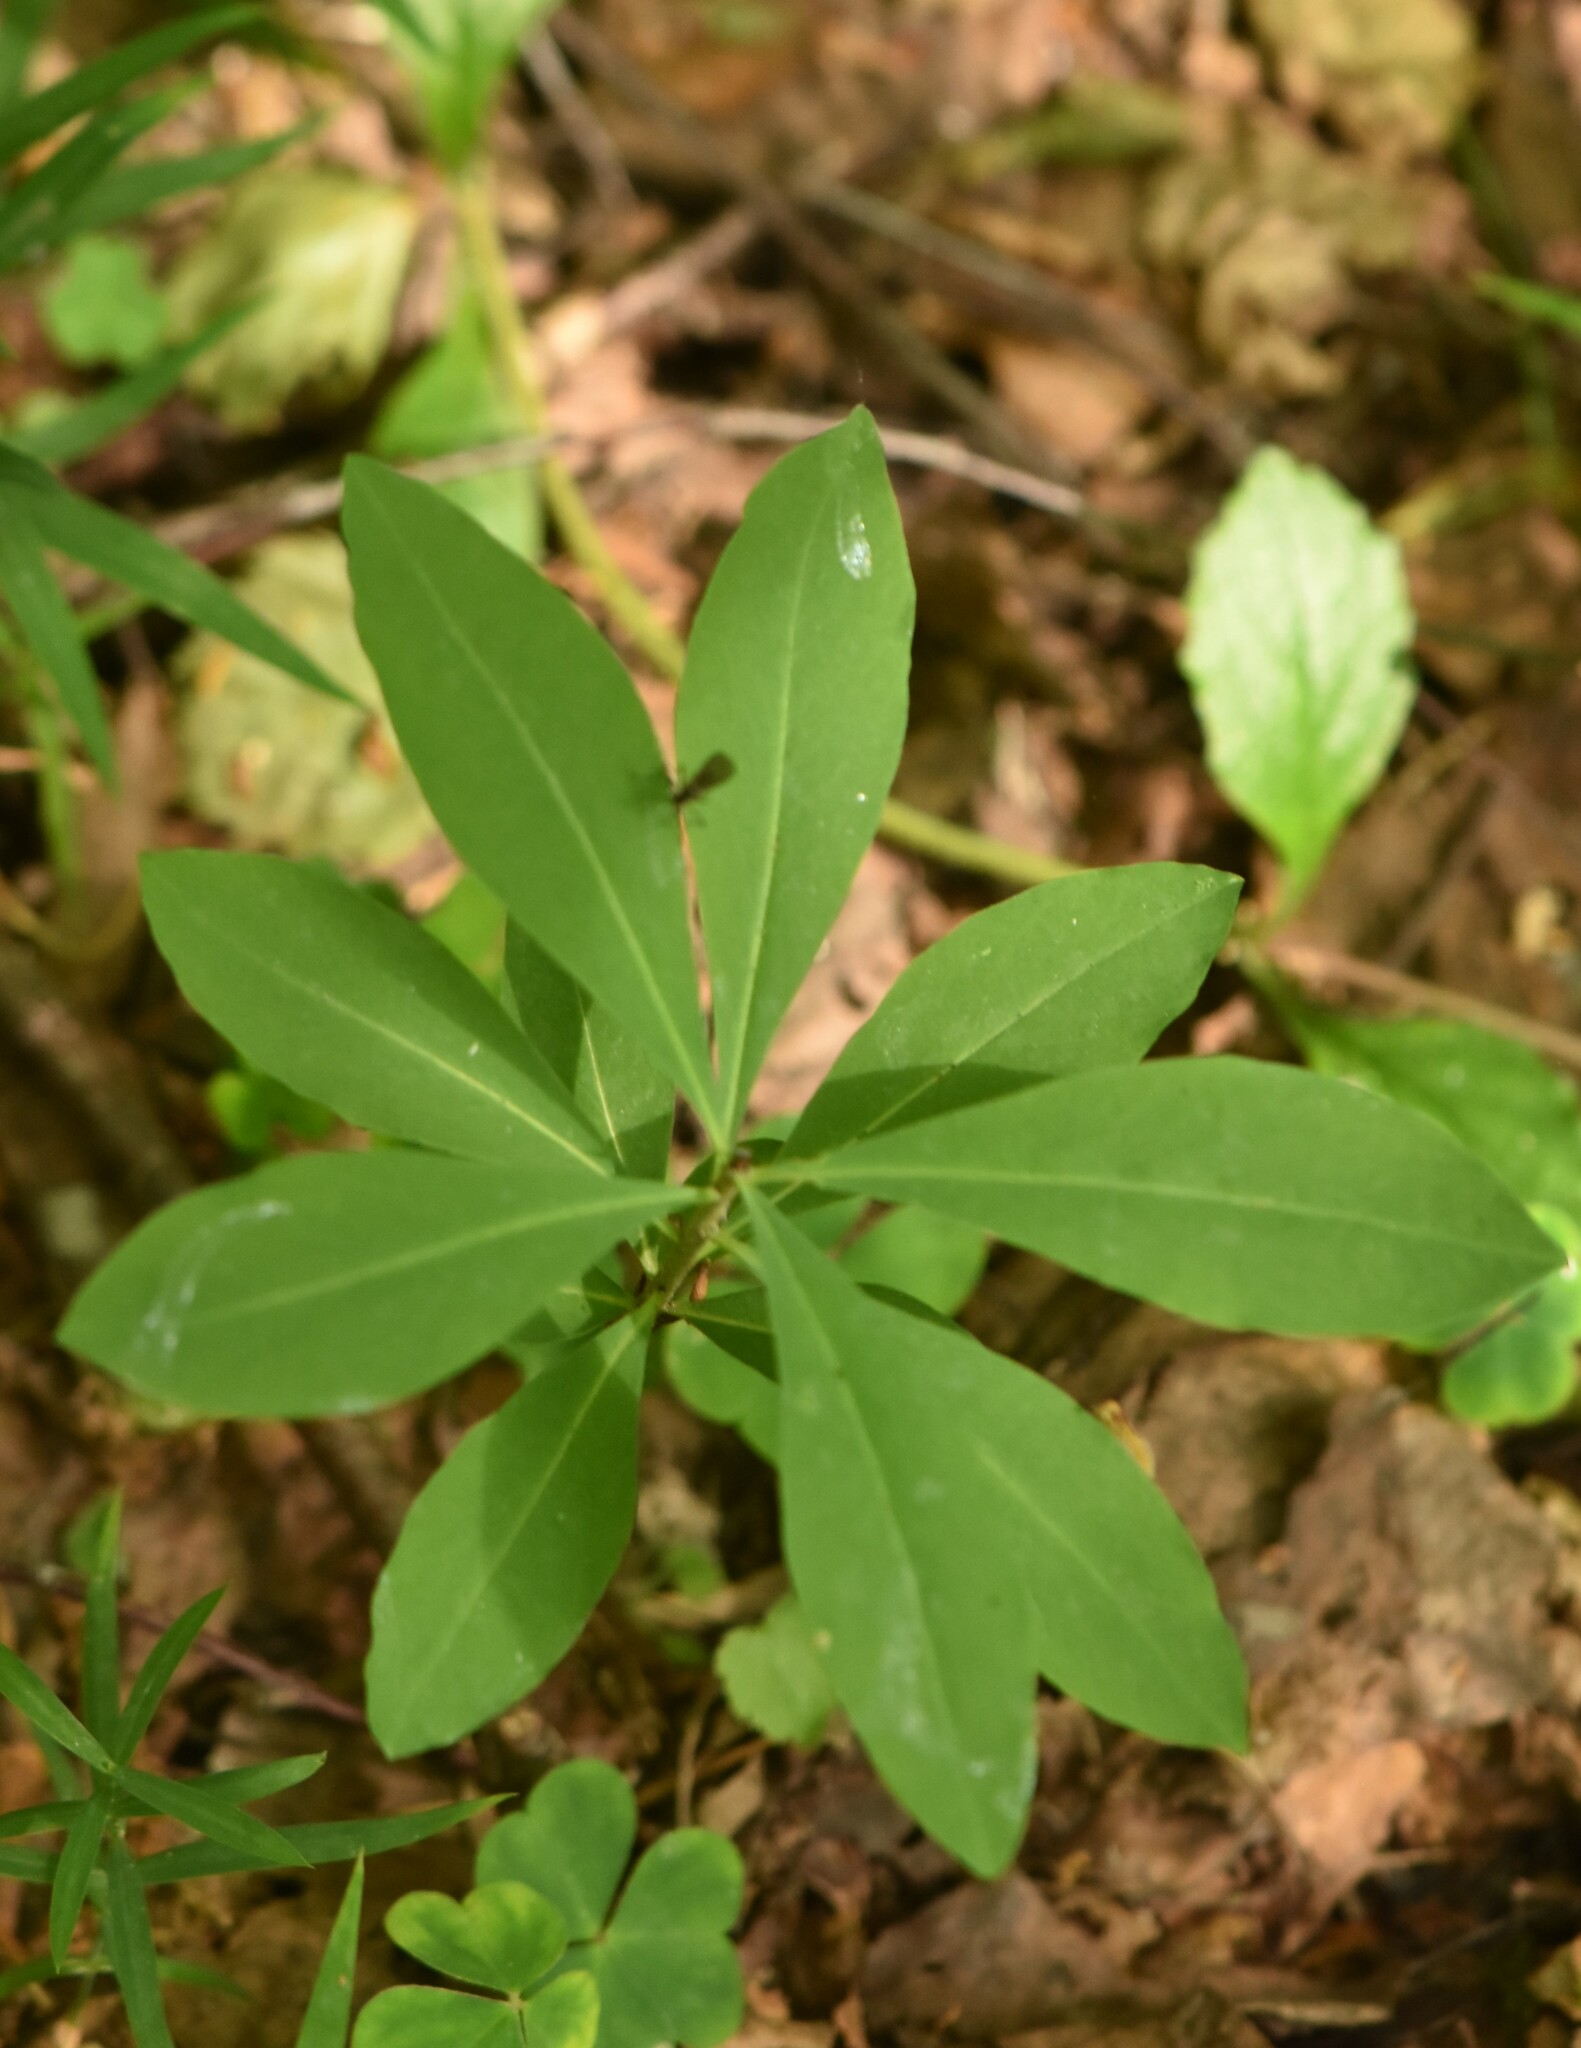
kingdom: Plantae
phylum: Tracheophyta
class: Magnoliopsida
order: Malvales
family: Thymelaeaceae
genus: Daphne
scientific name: Daphne mezereum
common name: Mezereon
